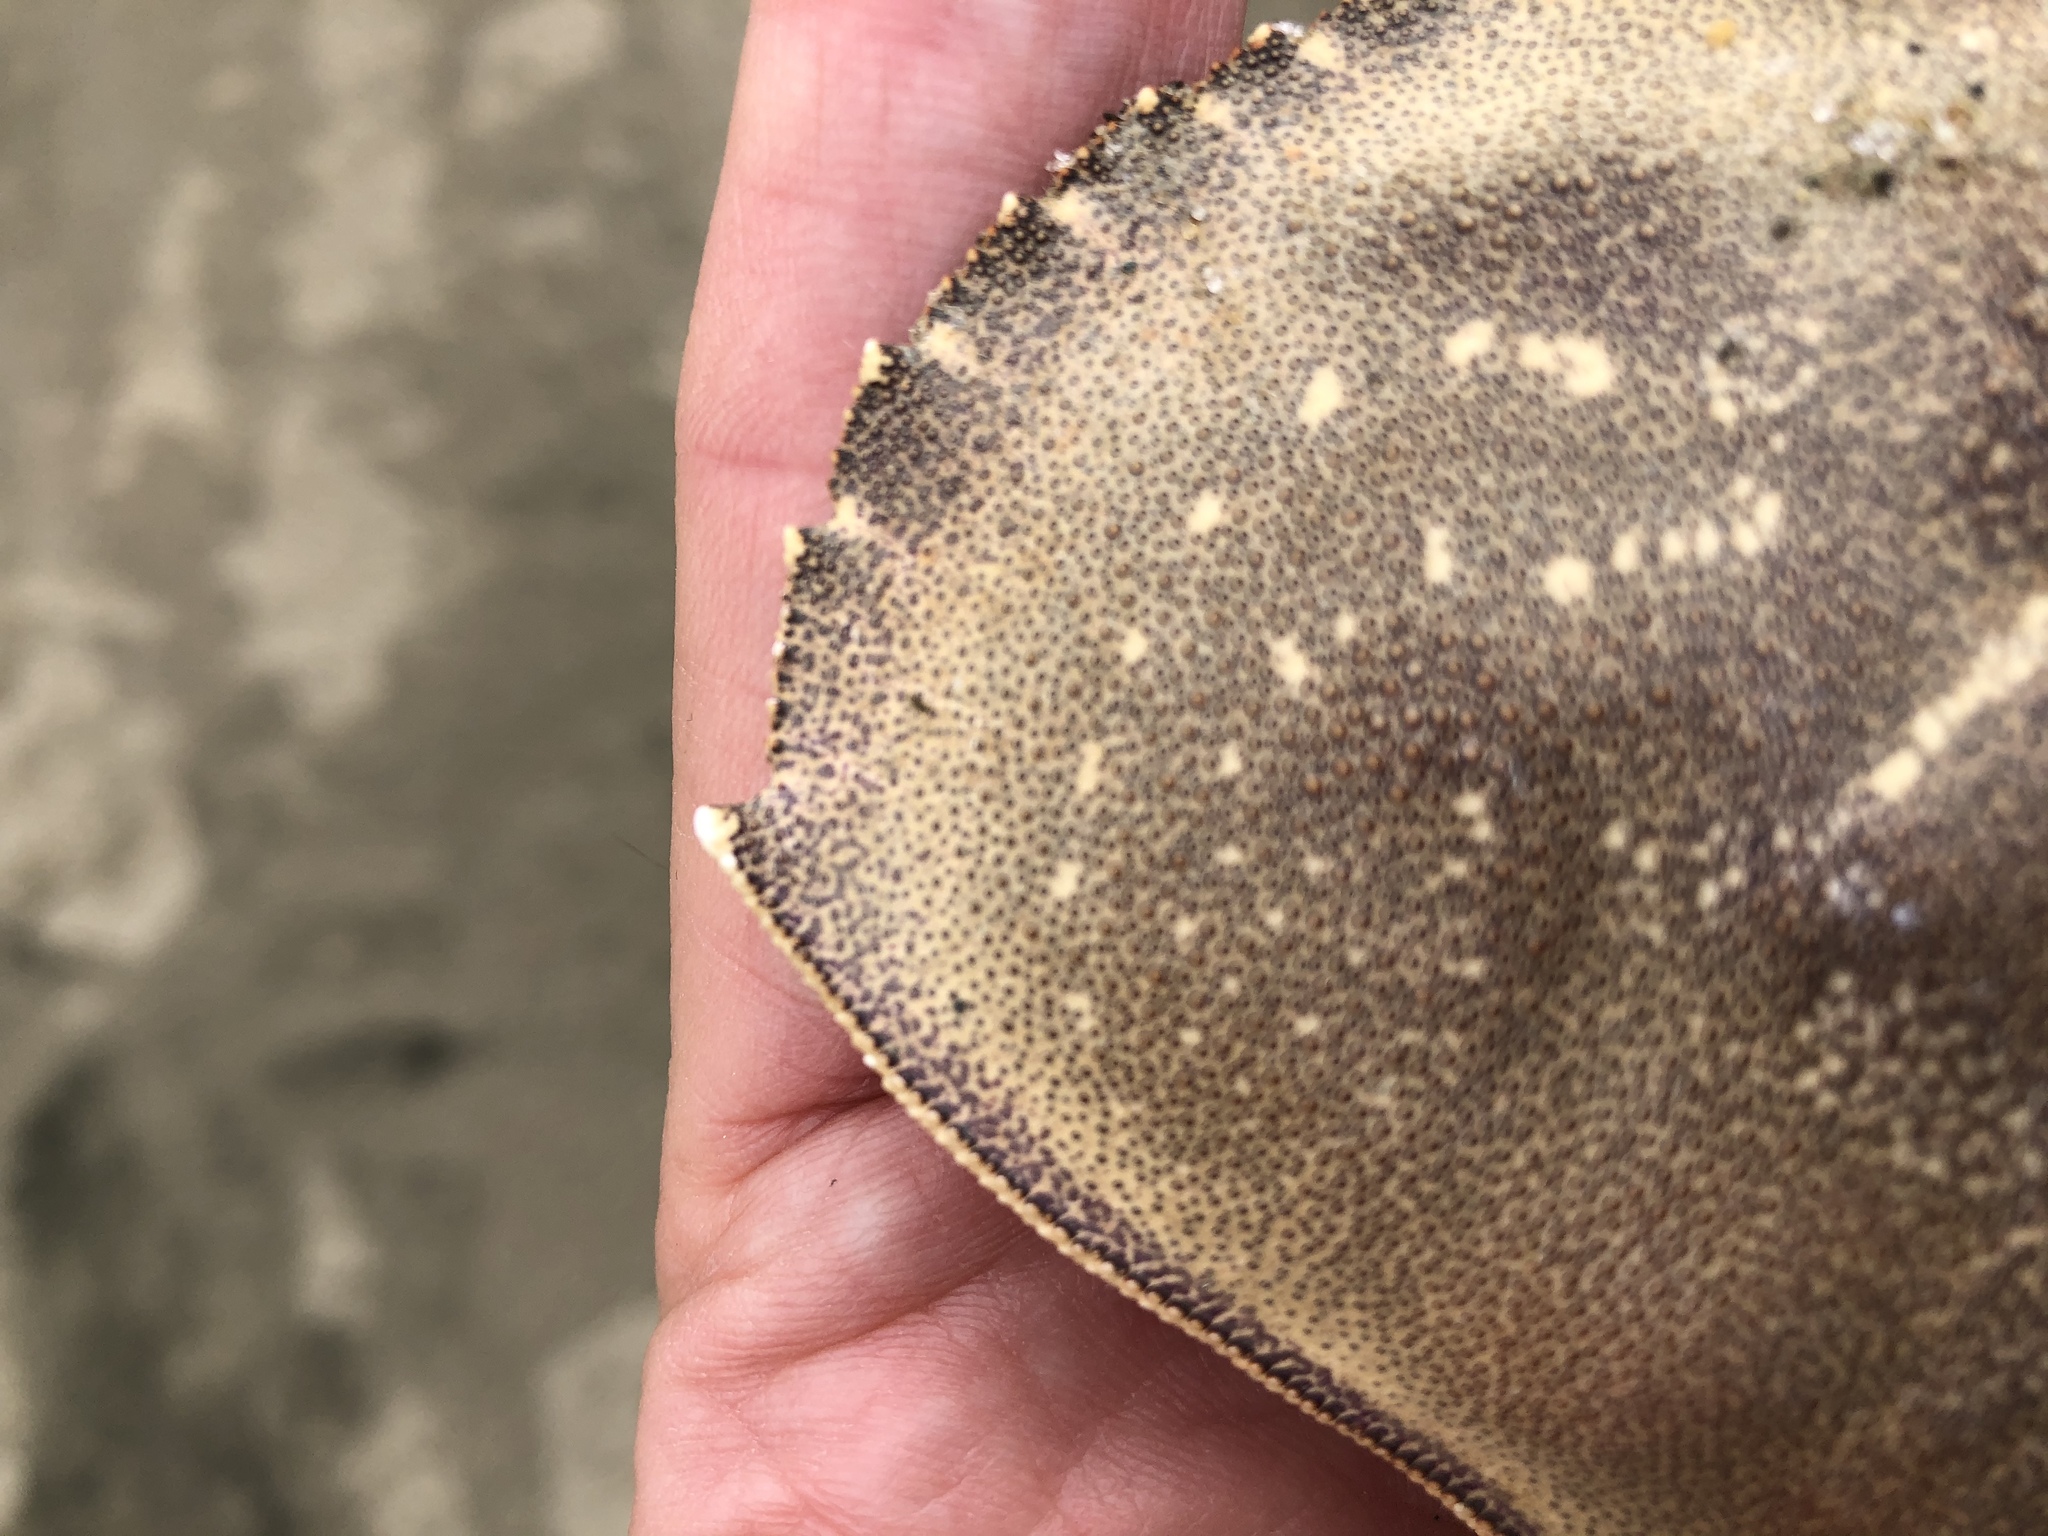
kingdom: Animalia
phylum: Arthropoda
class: Malacostraca
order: Decapoda
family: Cancridae
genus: Metacarcinus
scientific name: Metacarcinus magister
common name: Californian crab
